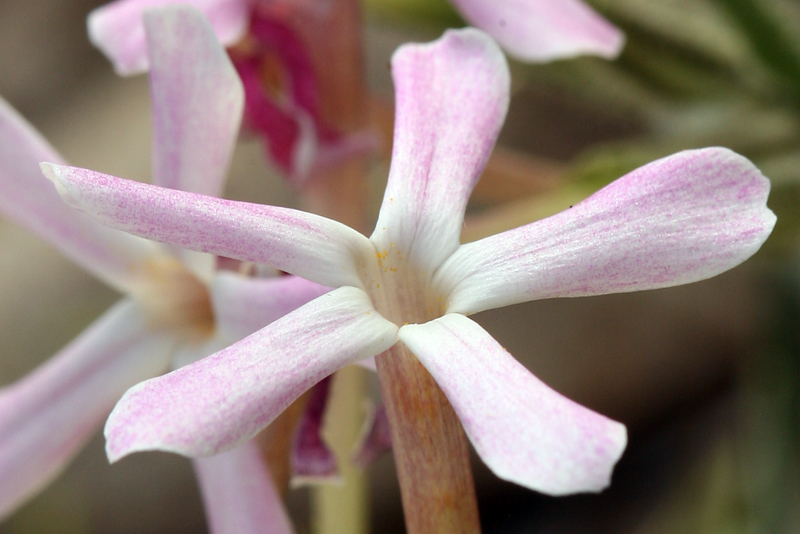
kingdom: Plantae
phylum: Tracheophyta
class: Magnoliopsida
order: Ericales
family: Polemoniaceae
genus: Phlox
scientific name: Phlox longifolia
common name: Longleaf phlox
